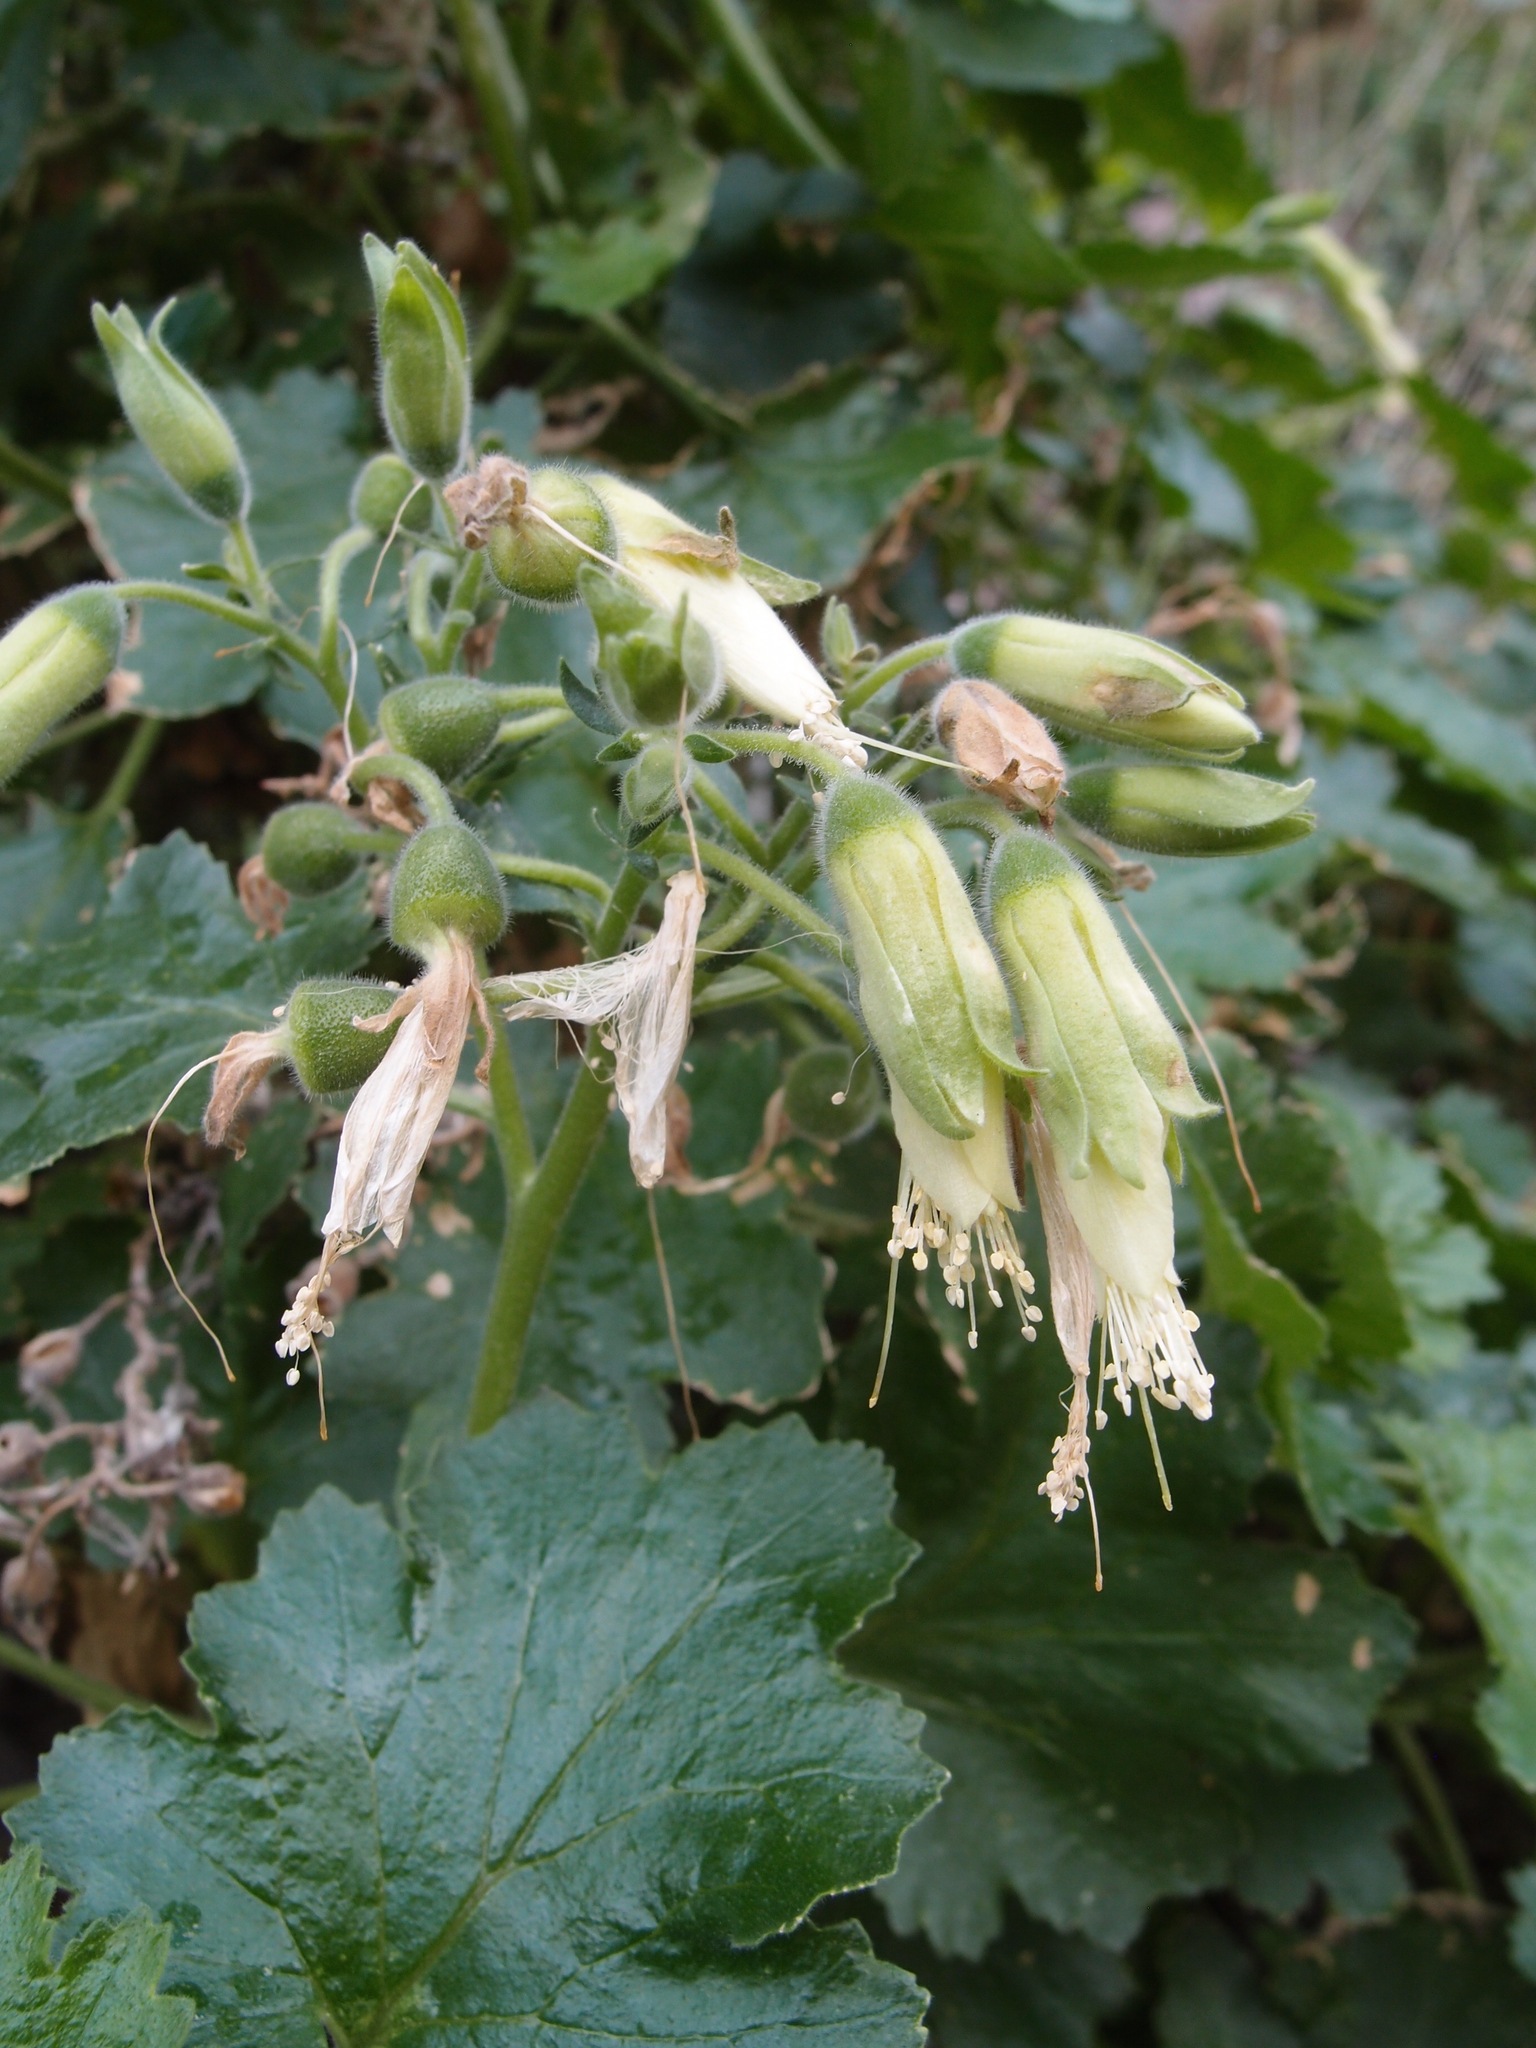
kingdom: Plantae
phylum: Tracheophyta
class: Magnoliopsida
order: Cornales
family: Loasaceae
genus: Eucnide
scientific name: Eucnide cordata
